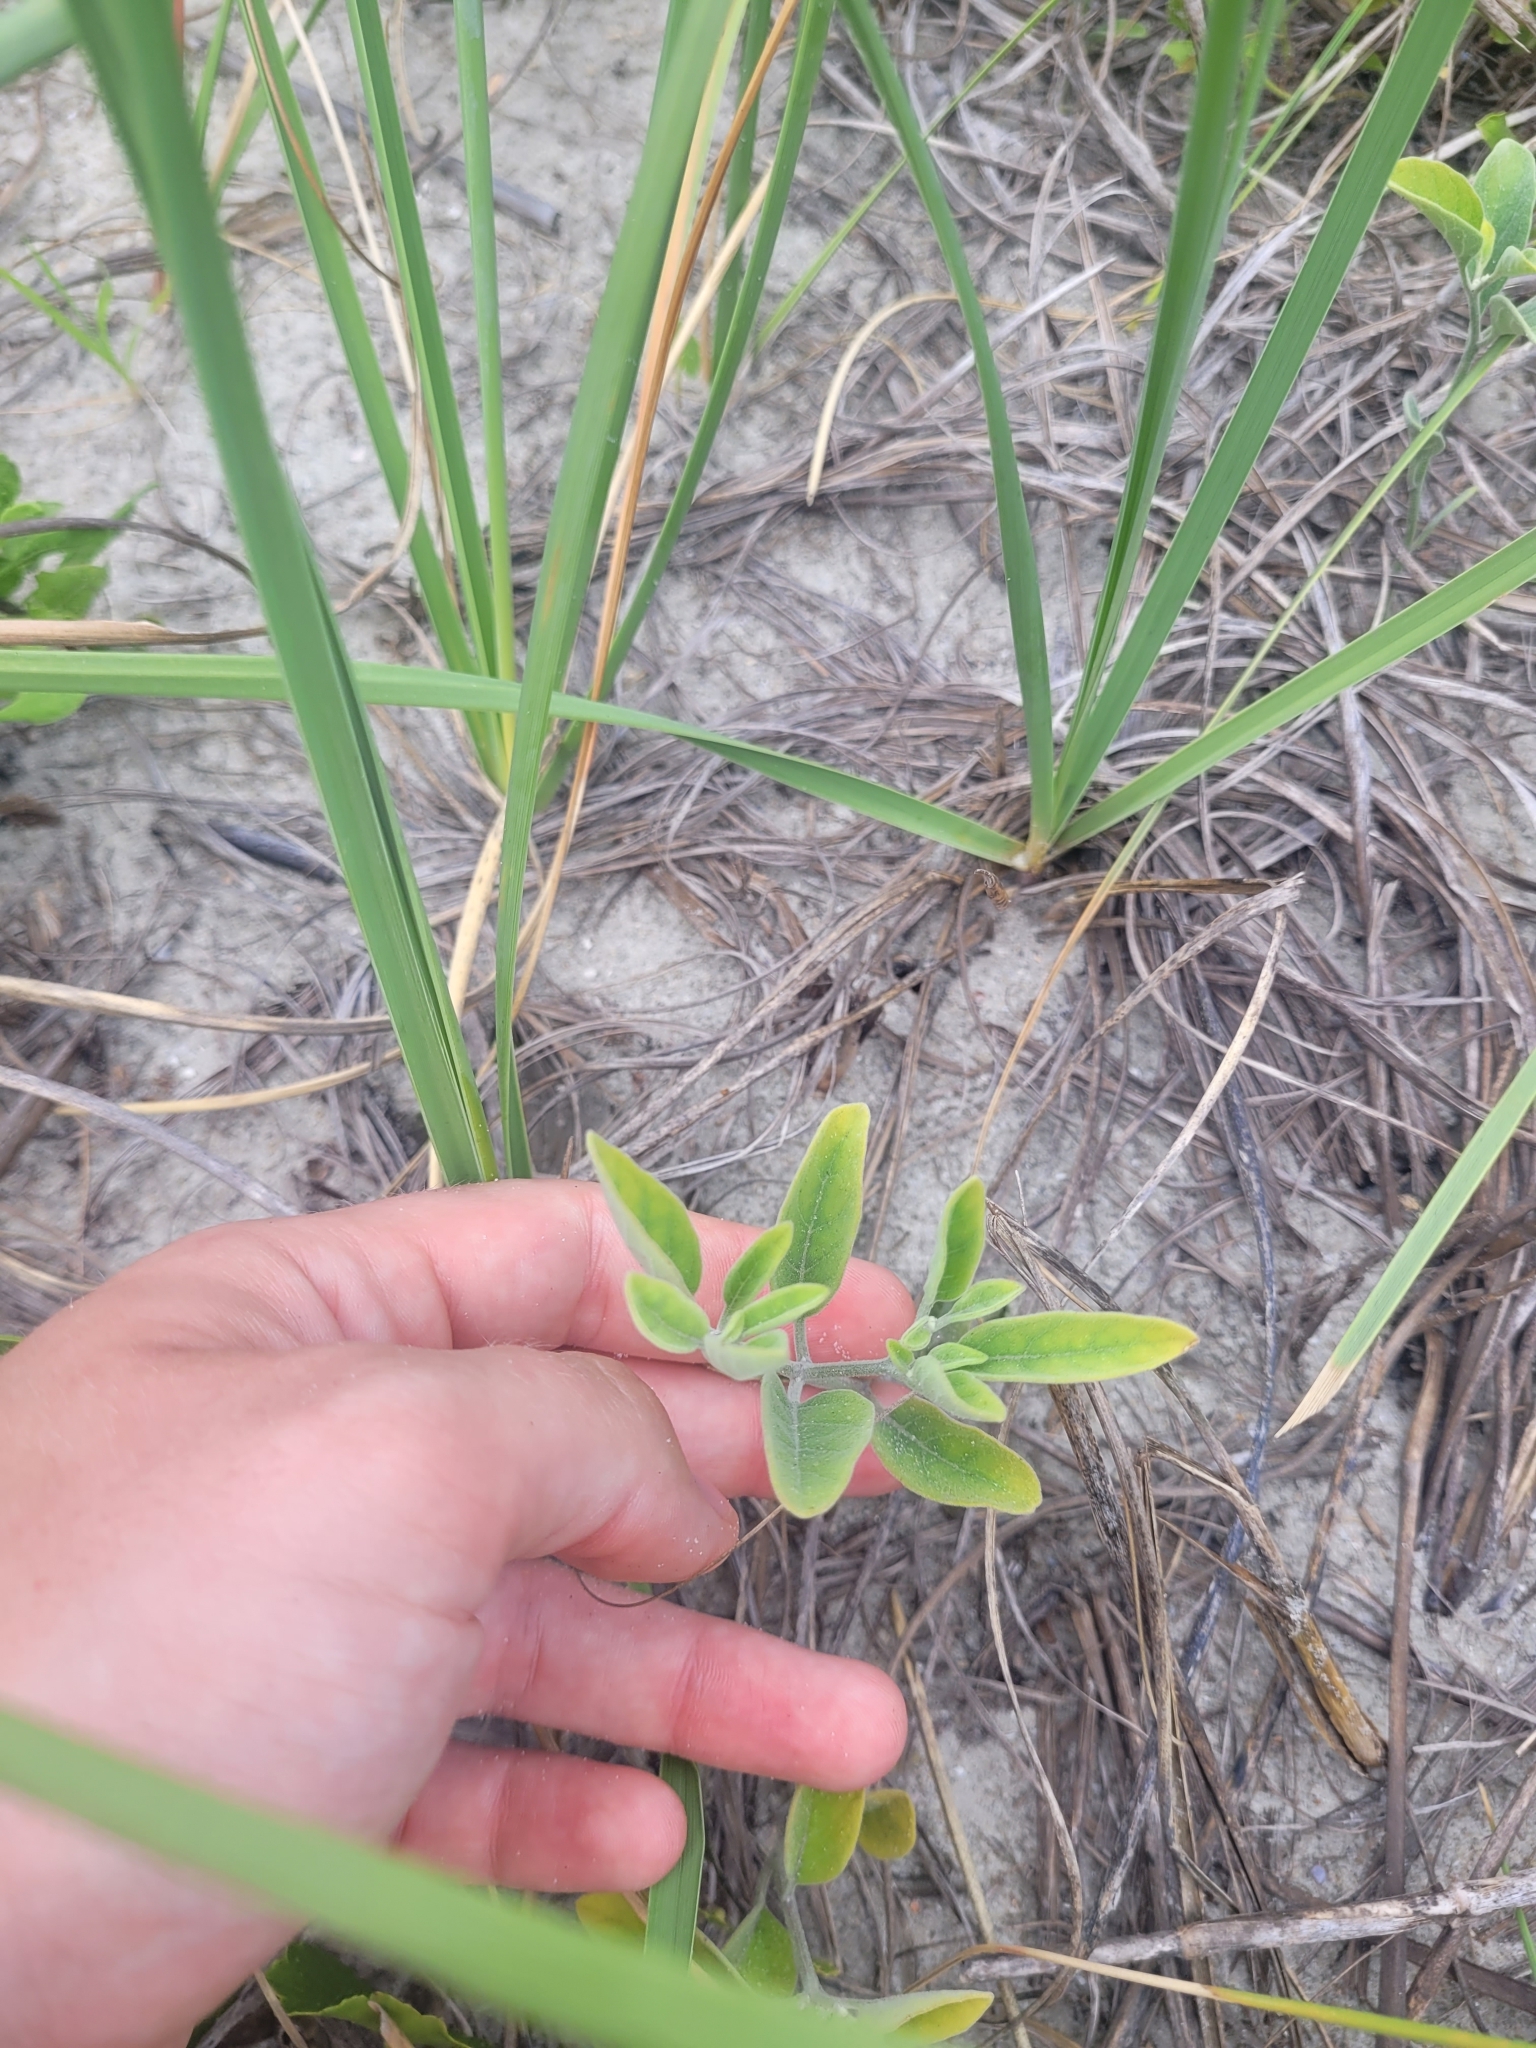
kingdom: Plantae
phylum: Tracheophyta
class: Magnoliopsida
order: Solanales
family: Solanaceae
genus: Physalis
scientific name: Physalis walteri
